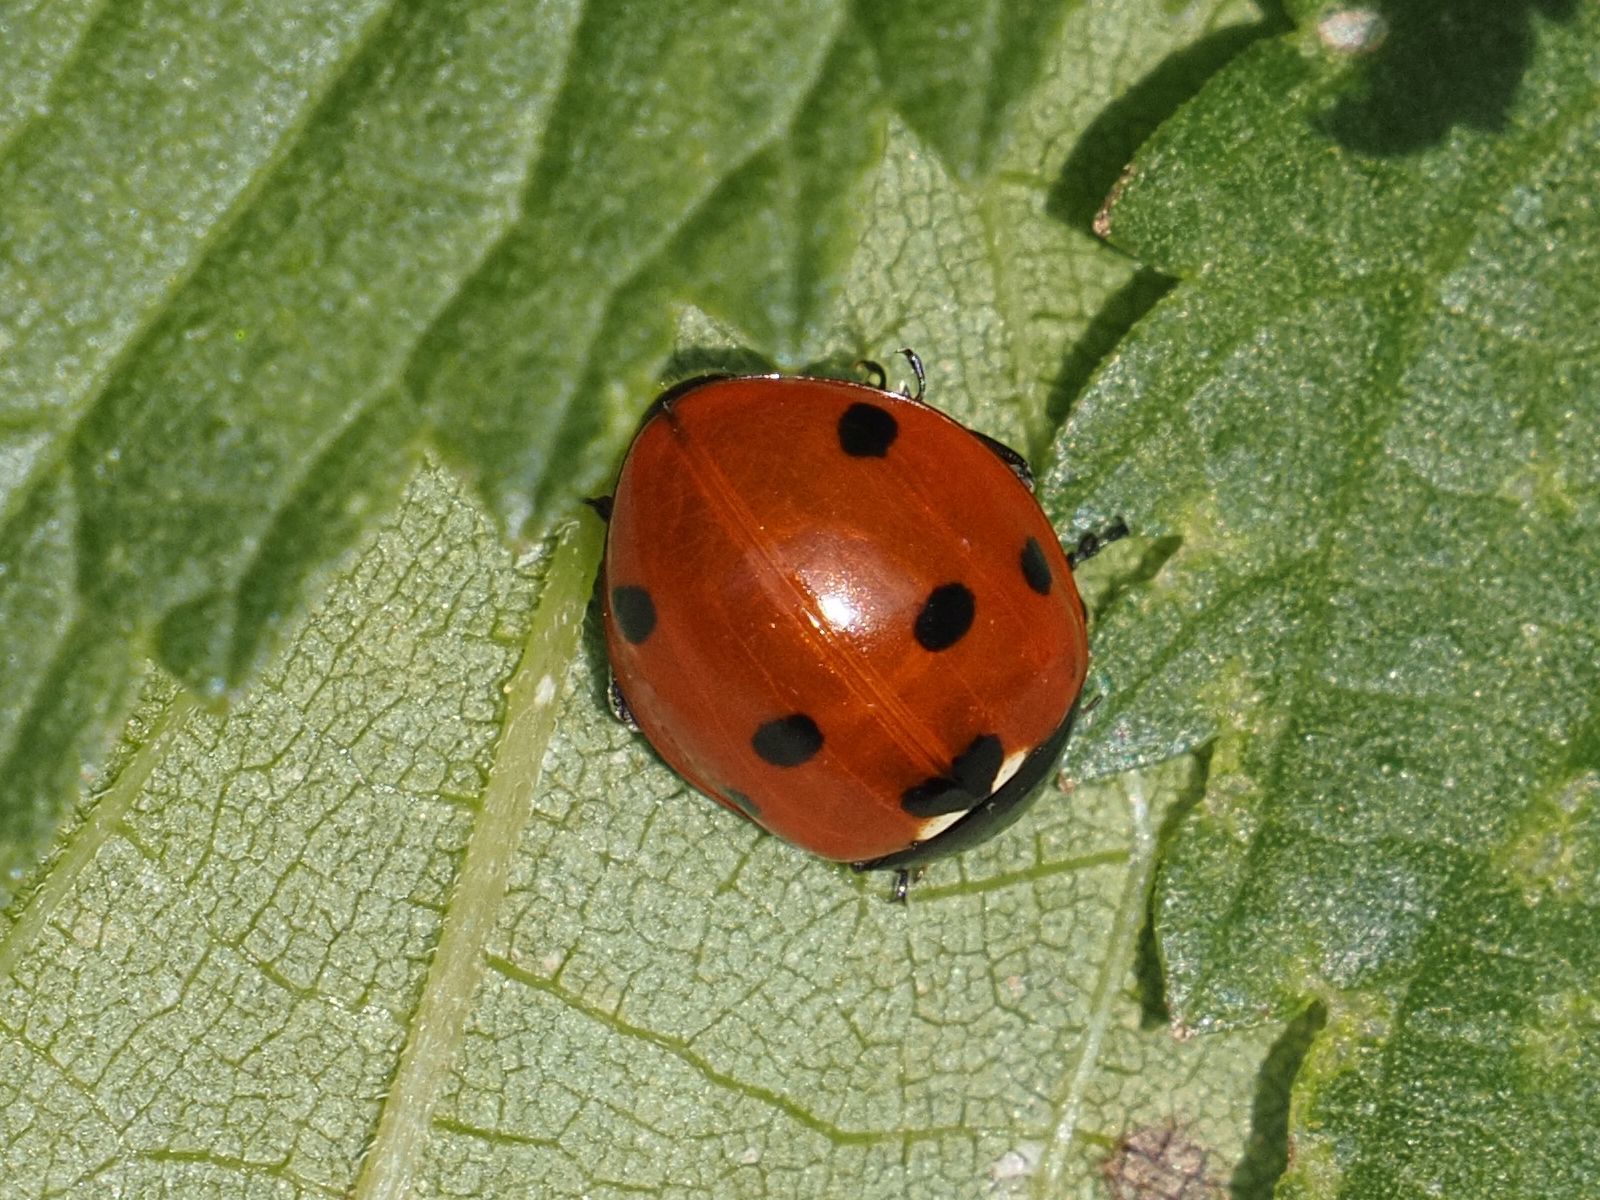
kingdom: Animalia
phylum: Arthropoda
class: Insecta
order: Coleoptera
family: Coccinellidae
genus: Coccinella
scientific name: Coccinella septempunctata
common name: Sevenspotted lady beetle
